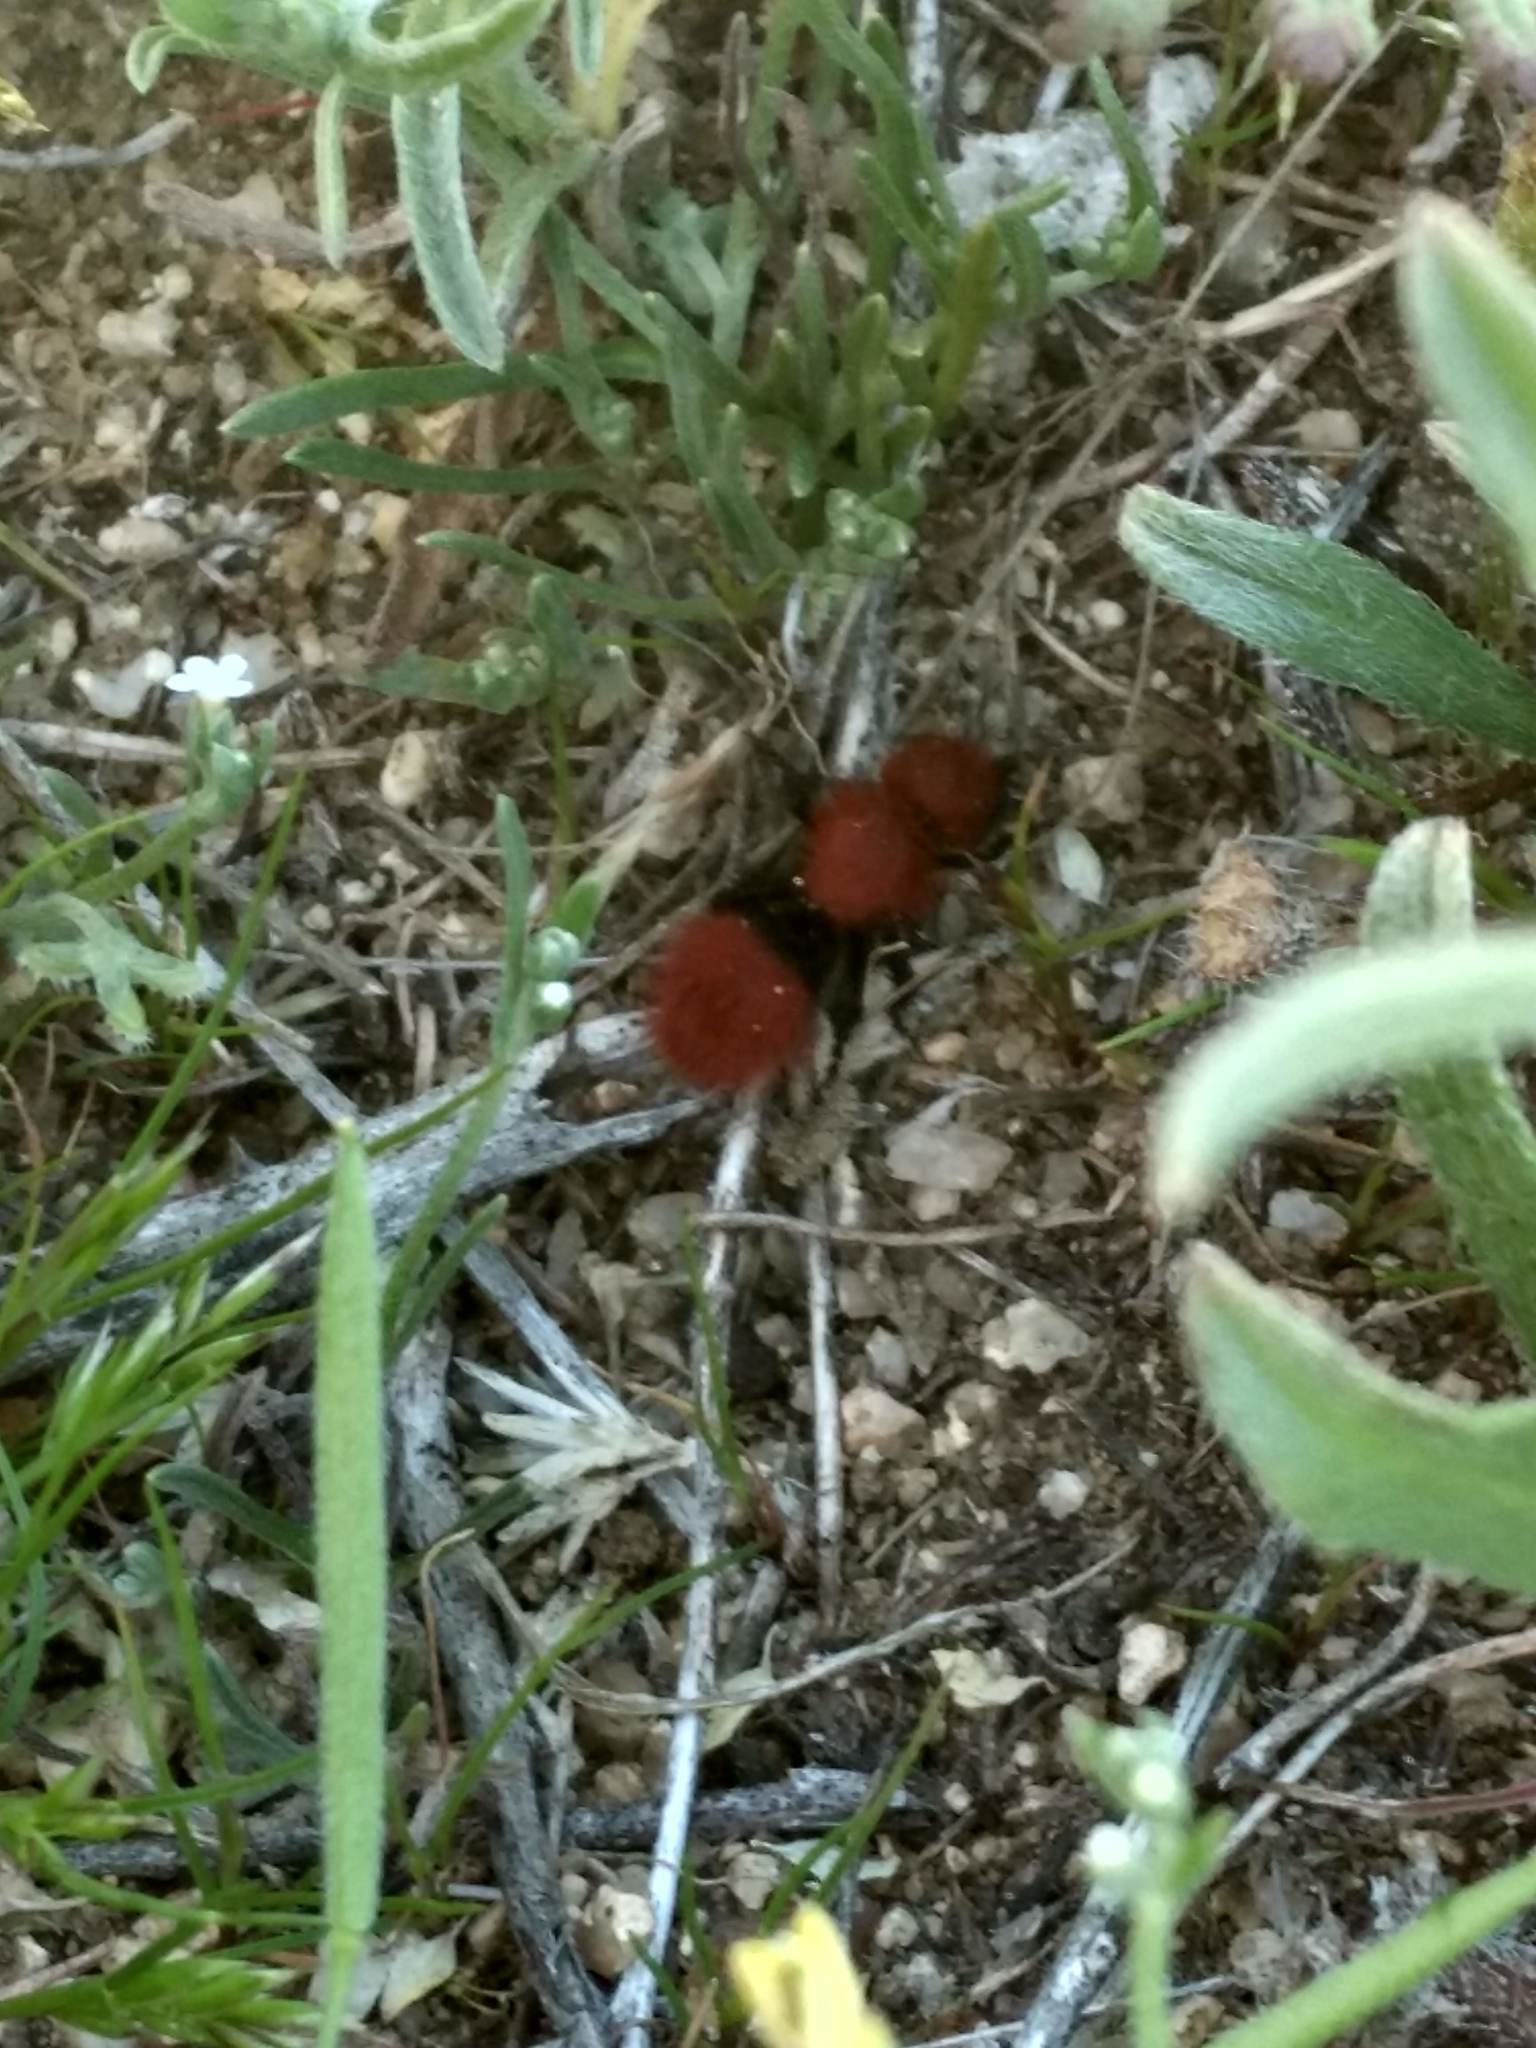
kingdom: Animalia
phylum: Arthropoda
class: Insecta
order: Hymenoptera
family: Mutillidae
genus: Dasymutilla
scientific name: Dasymutilla
